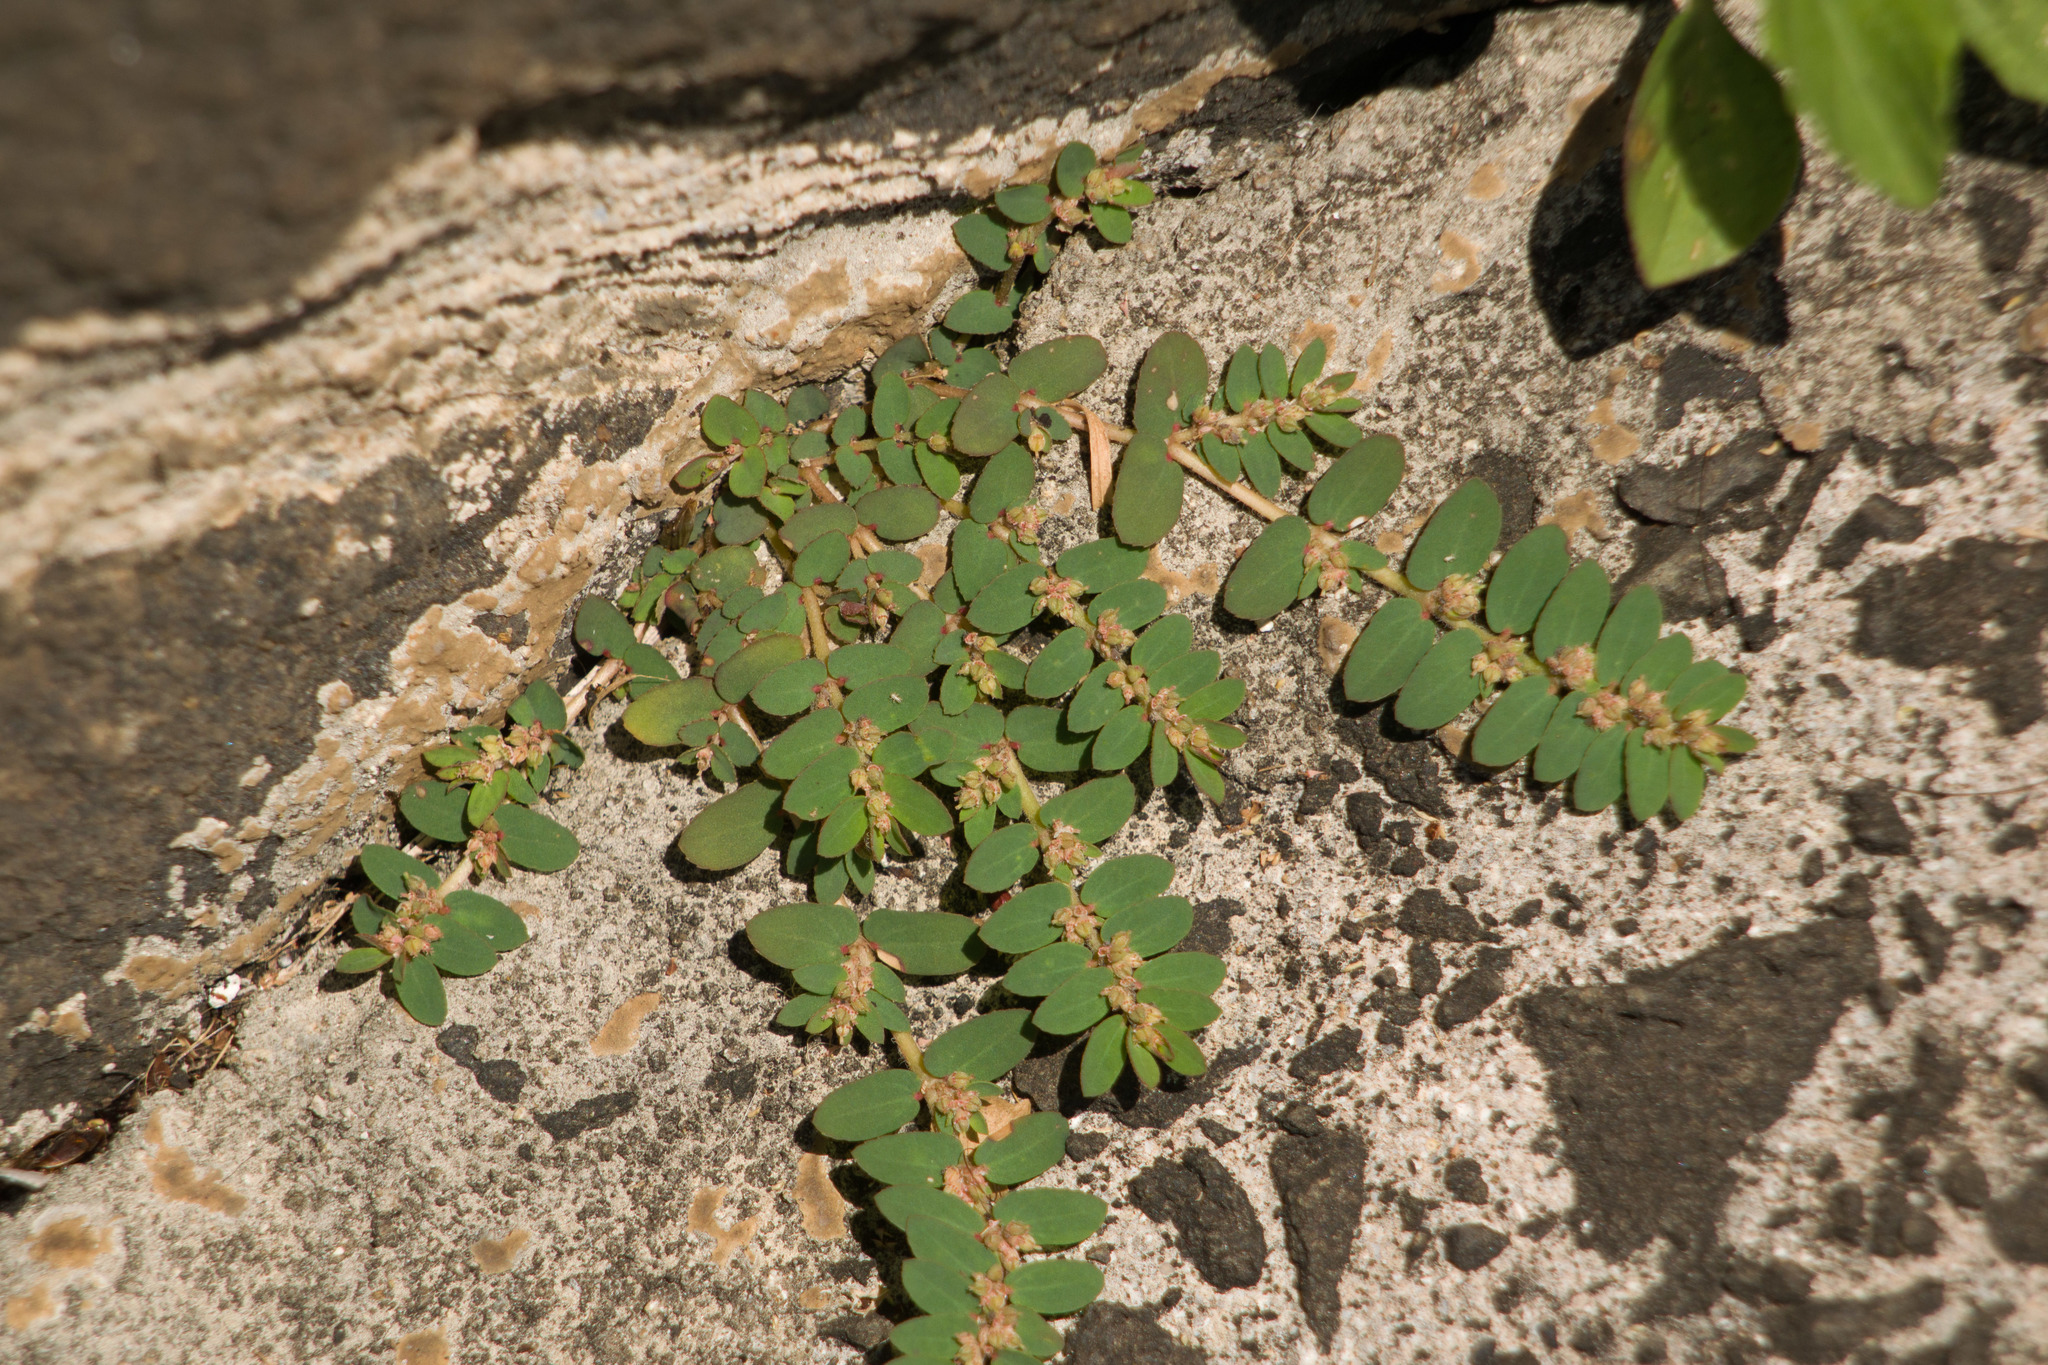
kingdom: Plantae
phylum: Tracheophyta
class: Magnoliopsida
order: Malpighiales
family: Euphorbiaceae
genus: Euphorbia
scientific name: Euphorbia thymifolia
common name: Gulf sandmat
